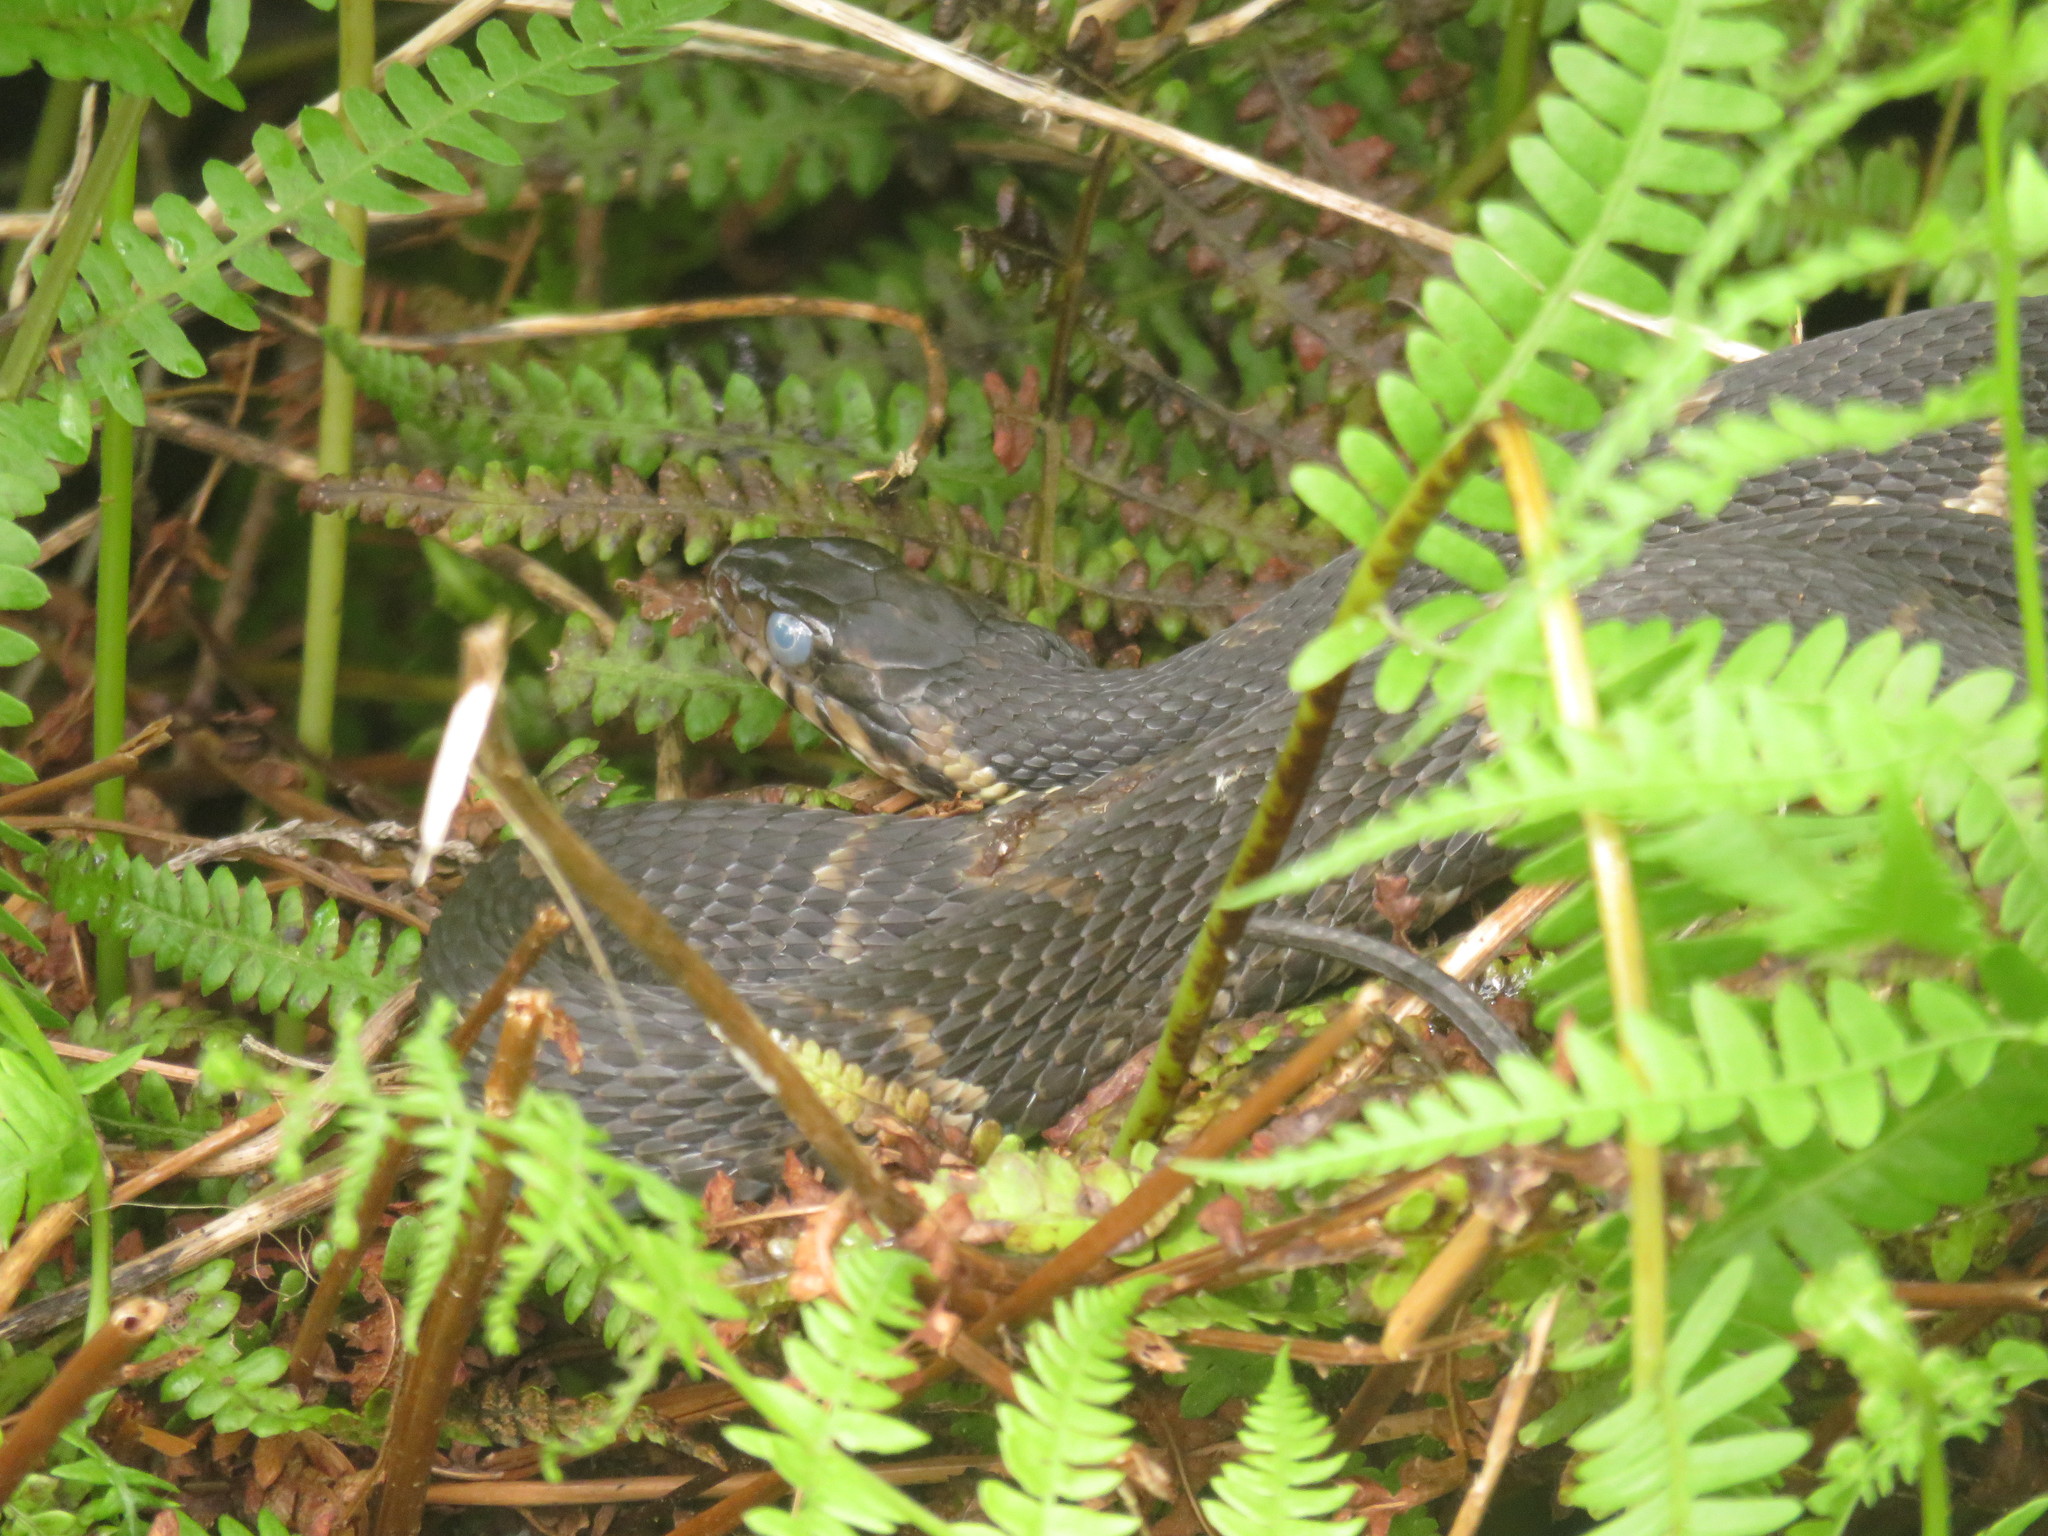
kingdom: Animalia
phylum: Chordata
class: Squamata
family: Colubridae
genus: Nerodia
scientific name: Nerodia fasciata
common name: Southern water snake
